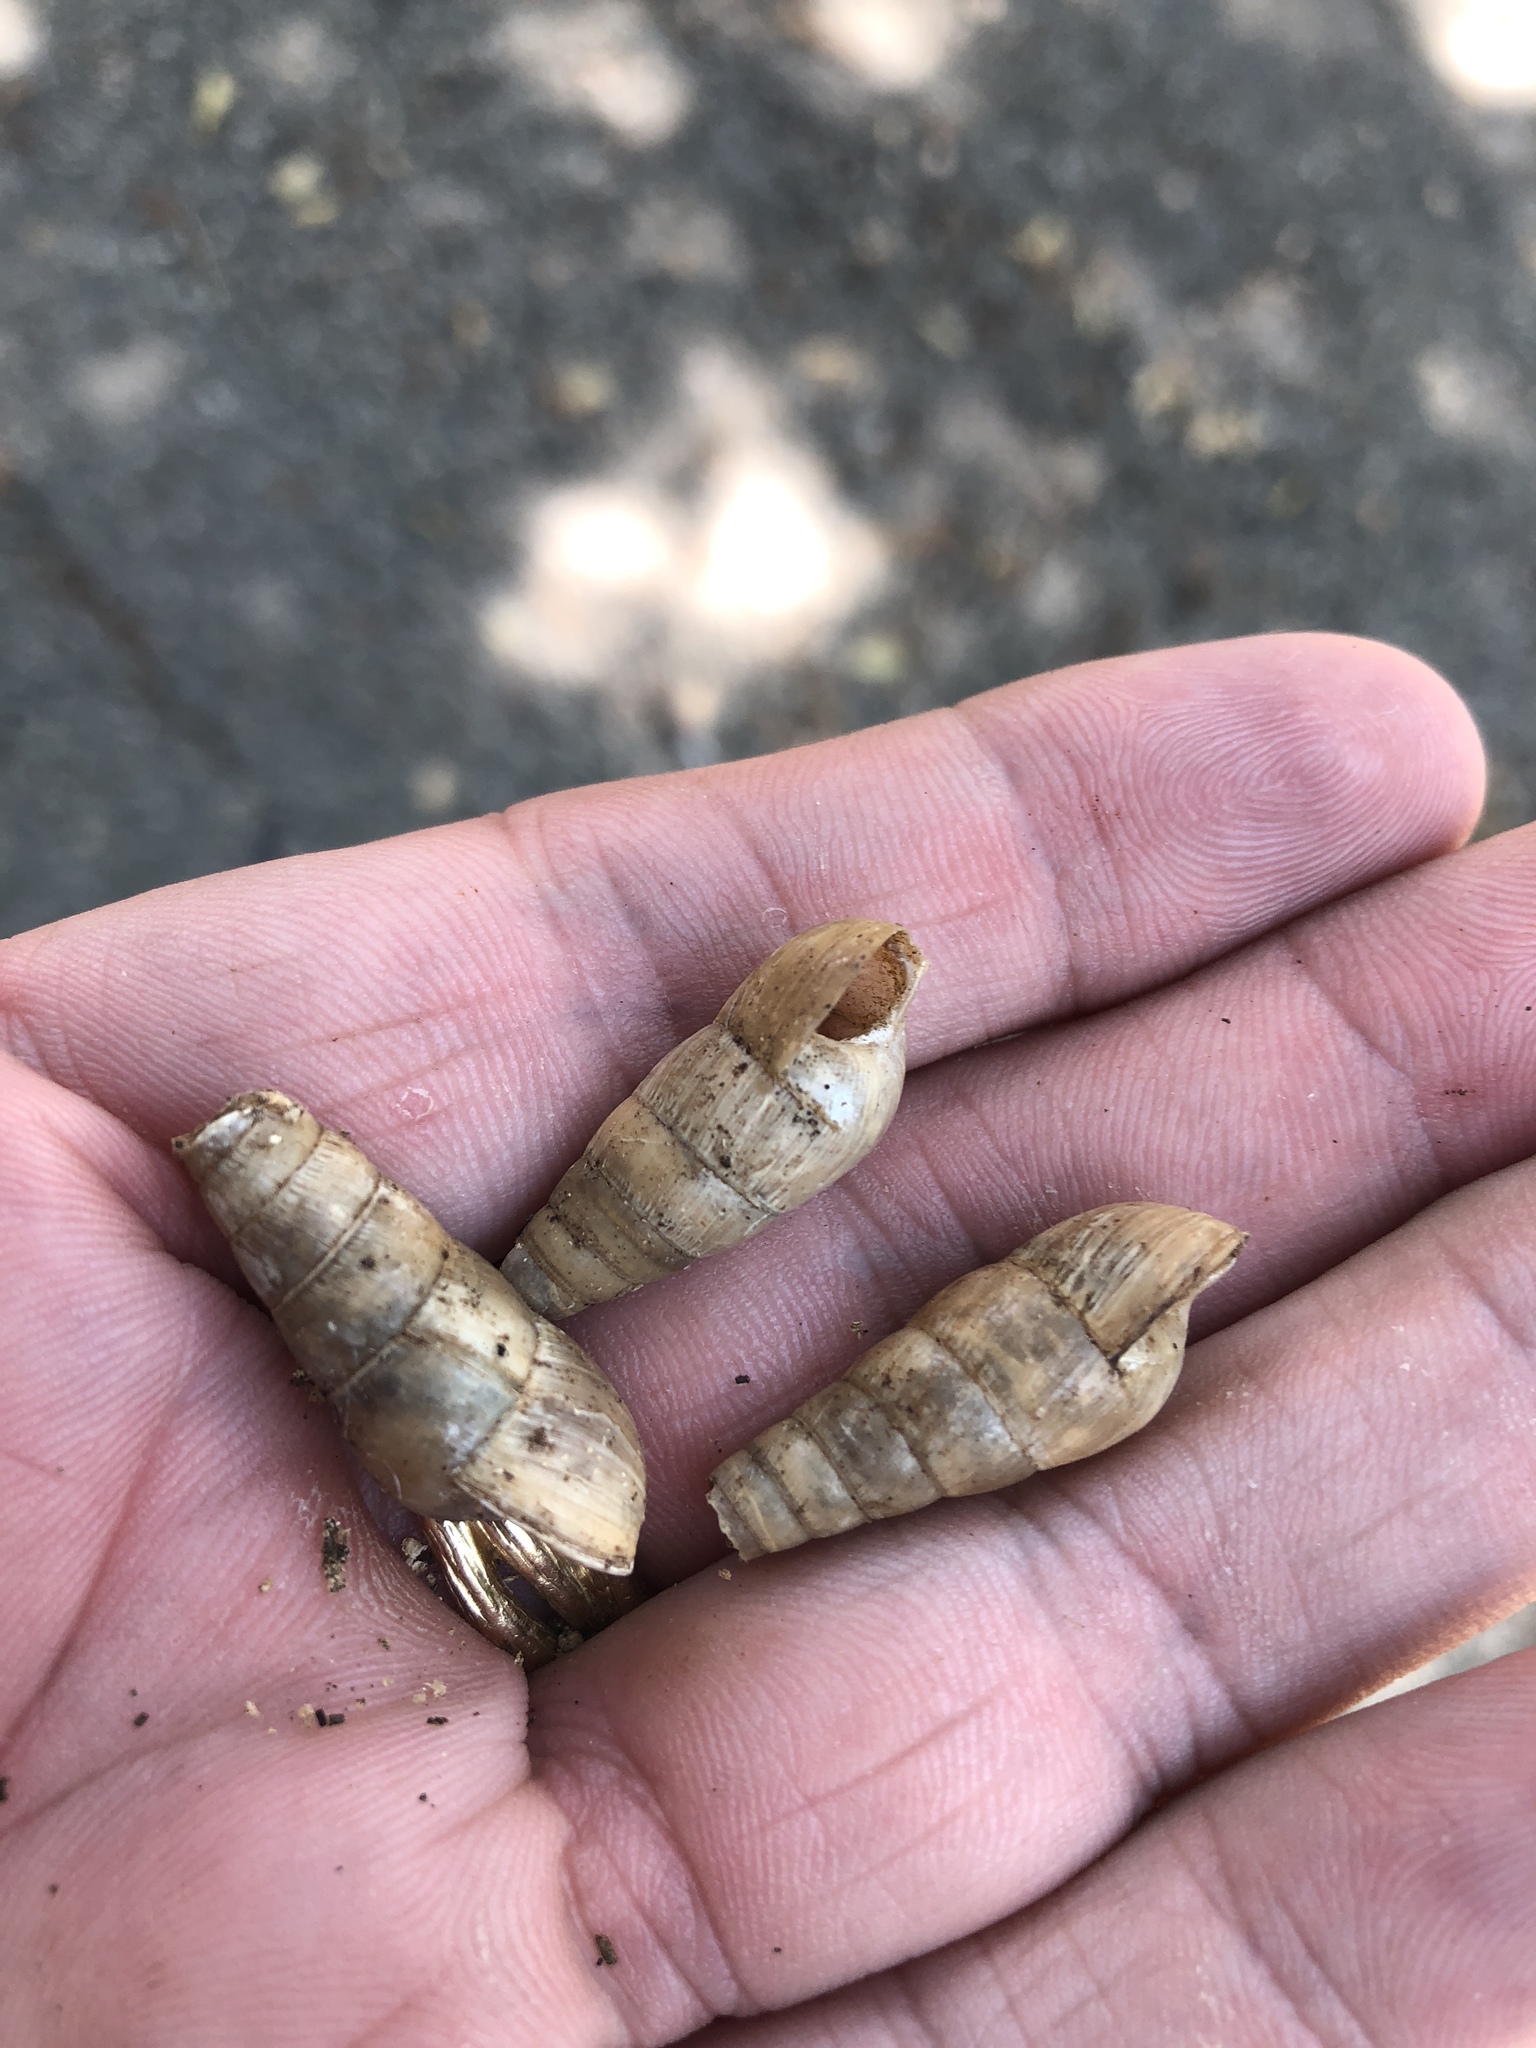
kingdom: Animalia
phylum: Mollusca
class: Gastropoda
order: Stylommatophora
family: Achatinidae
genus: Rumina
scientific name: Rumina decollata
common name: Decollate snail
